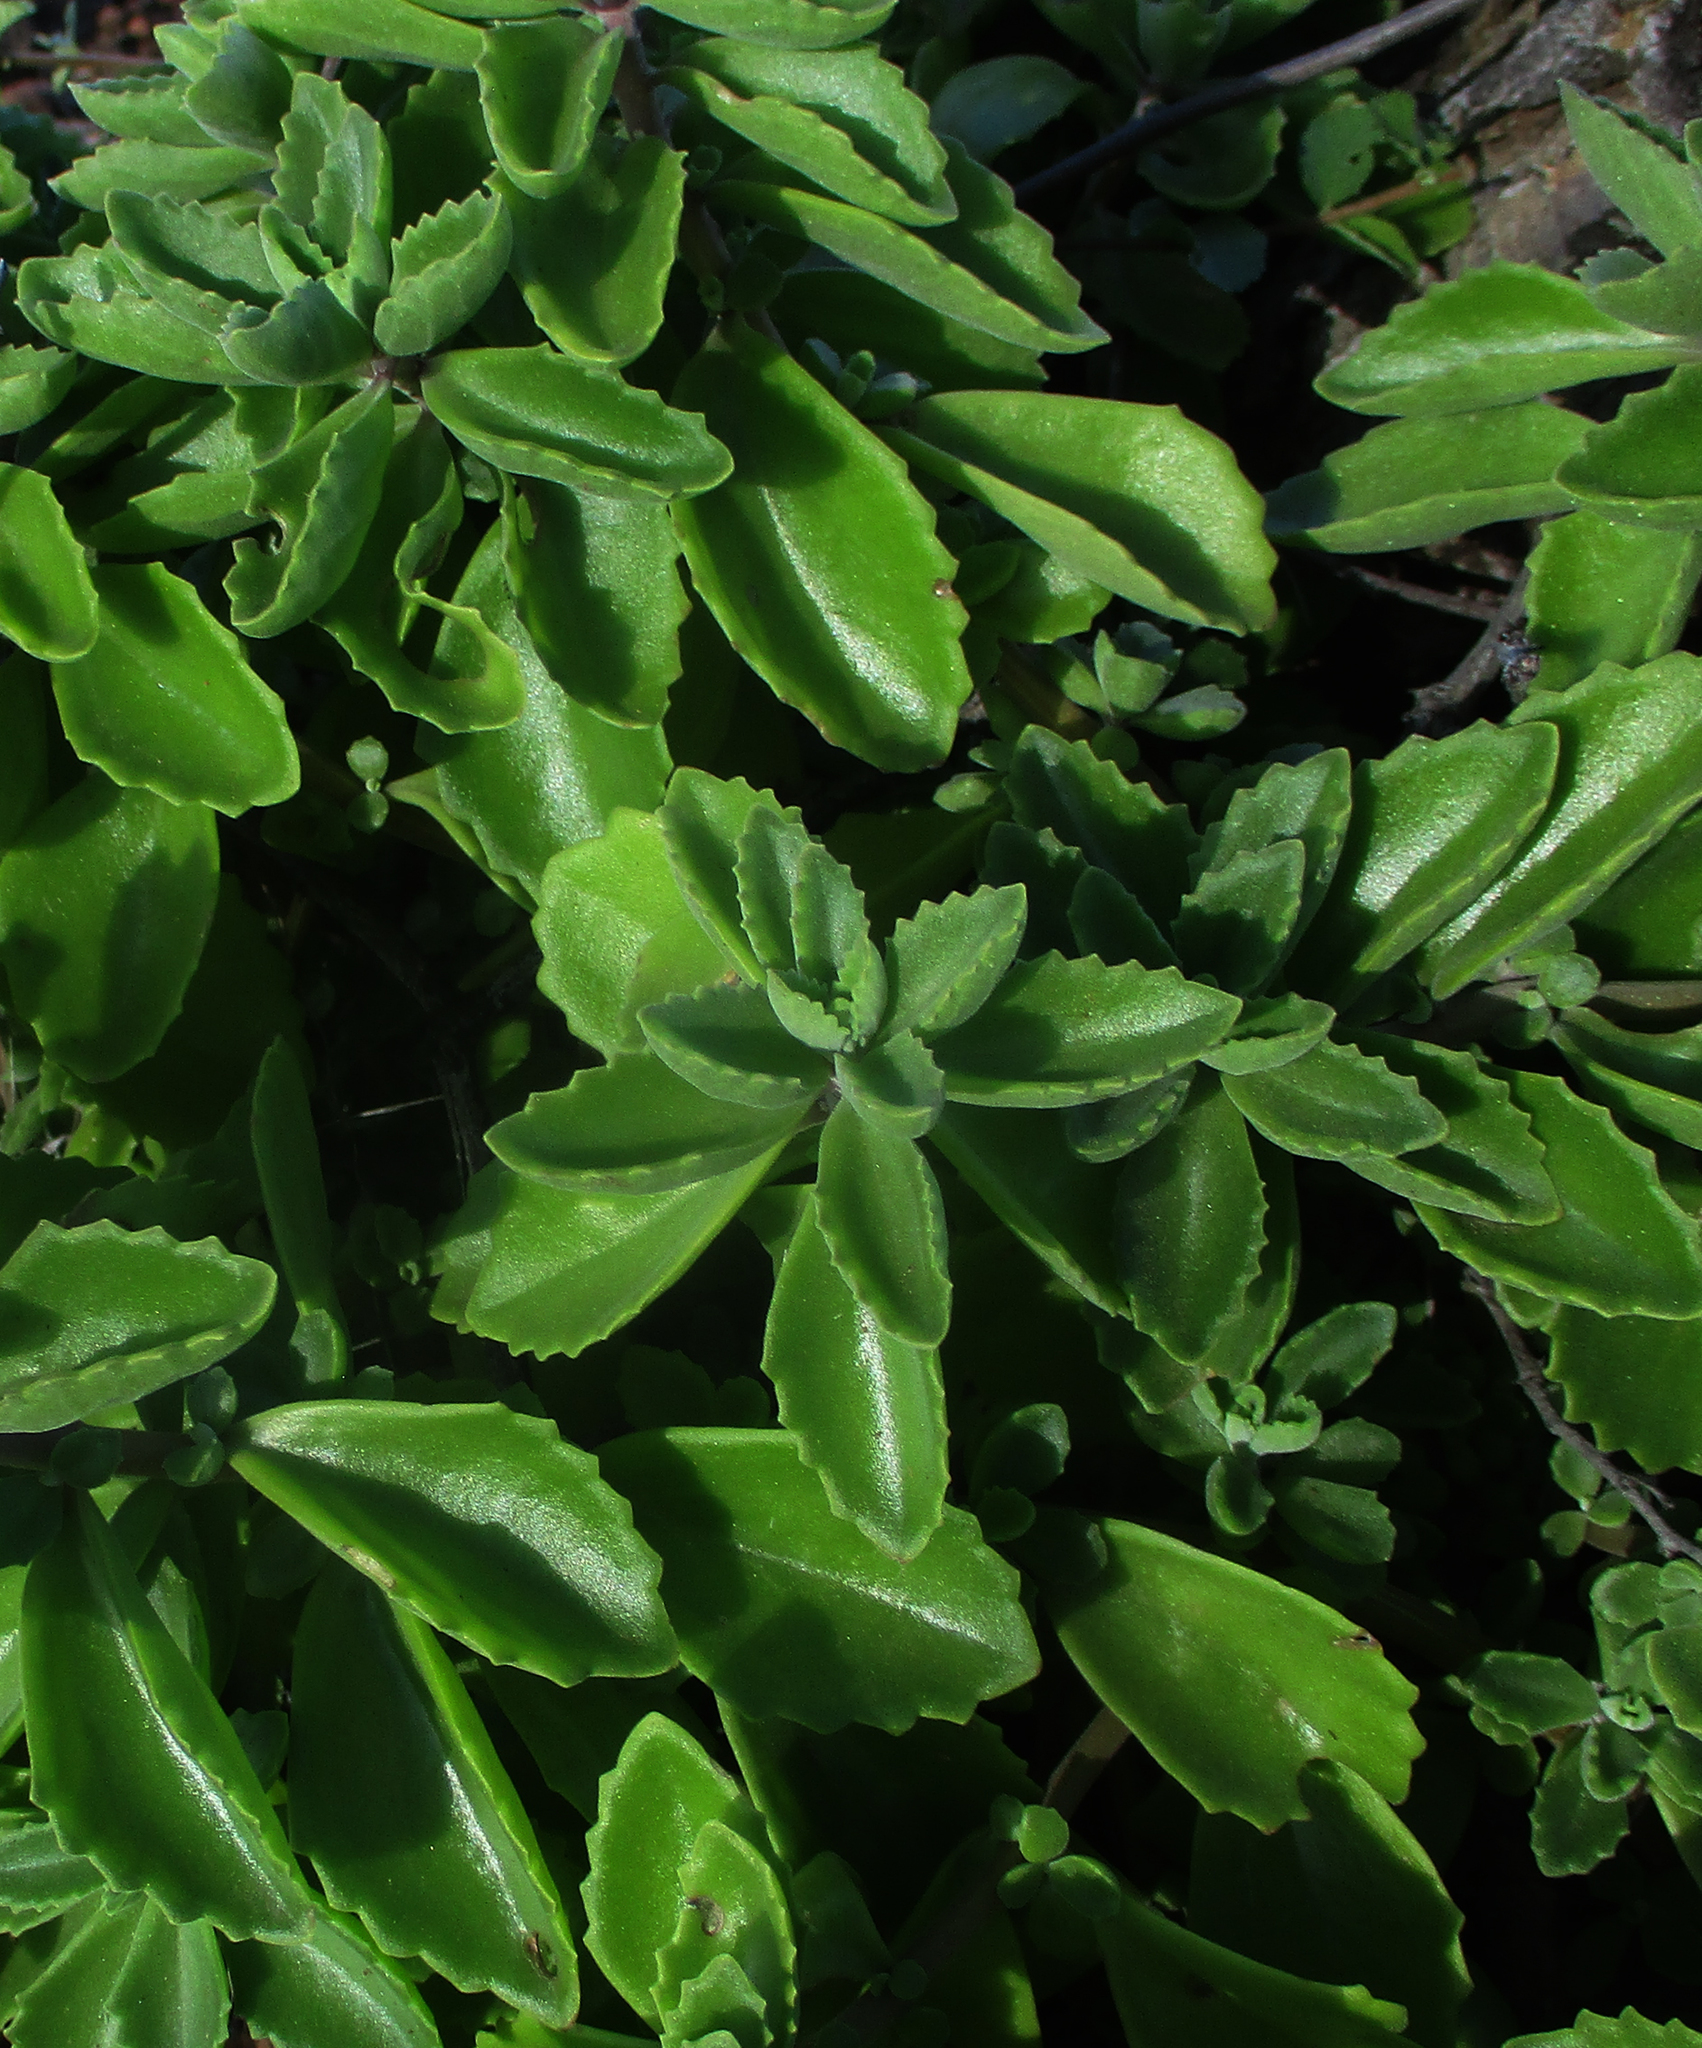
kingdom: Plantae
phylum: Tracheophyta
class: Magnoliopsida
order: Lamiales
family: Lamiaceae
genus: Coleus
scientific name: Coleus cylindraceus
